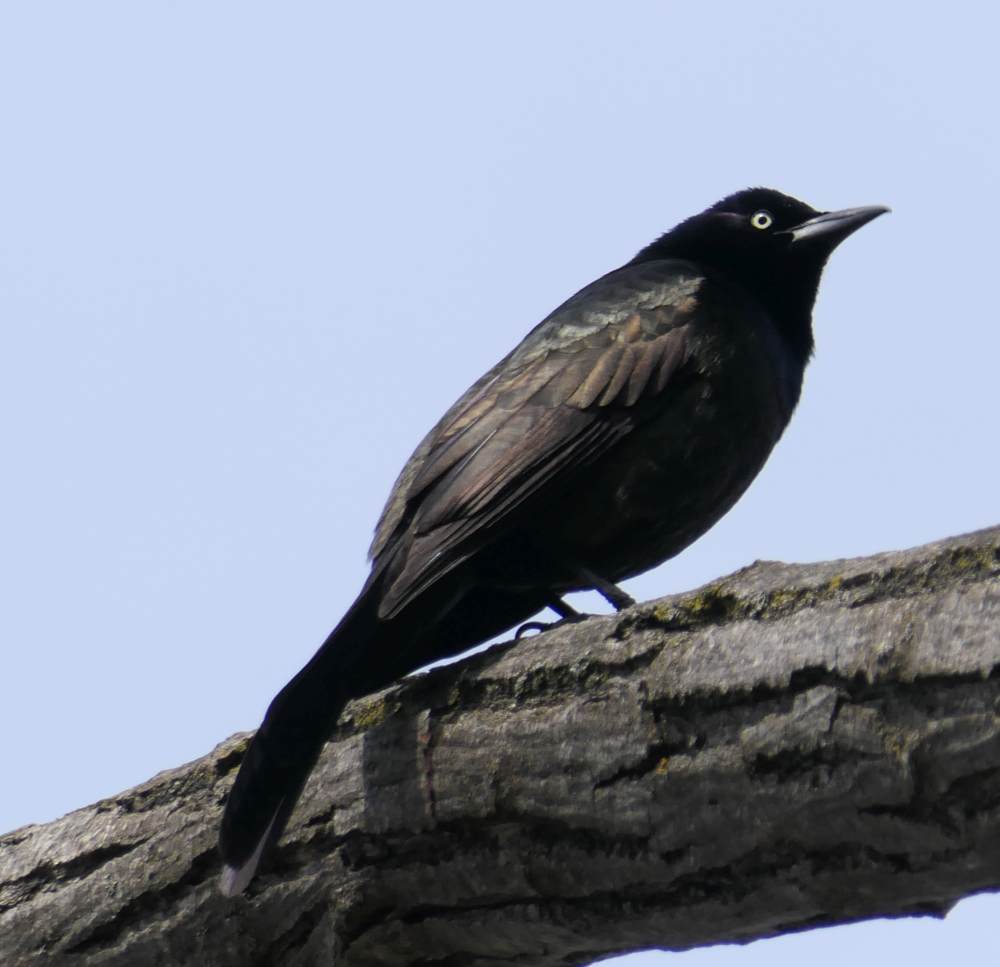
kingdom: Animalia
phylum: Chordata
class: Aves
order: Passeriformes
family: Icteridae
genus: Quiscalus
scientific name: Quiscalus quiscula
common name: Common grackle
